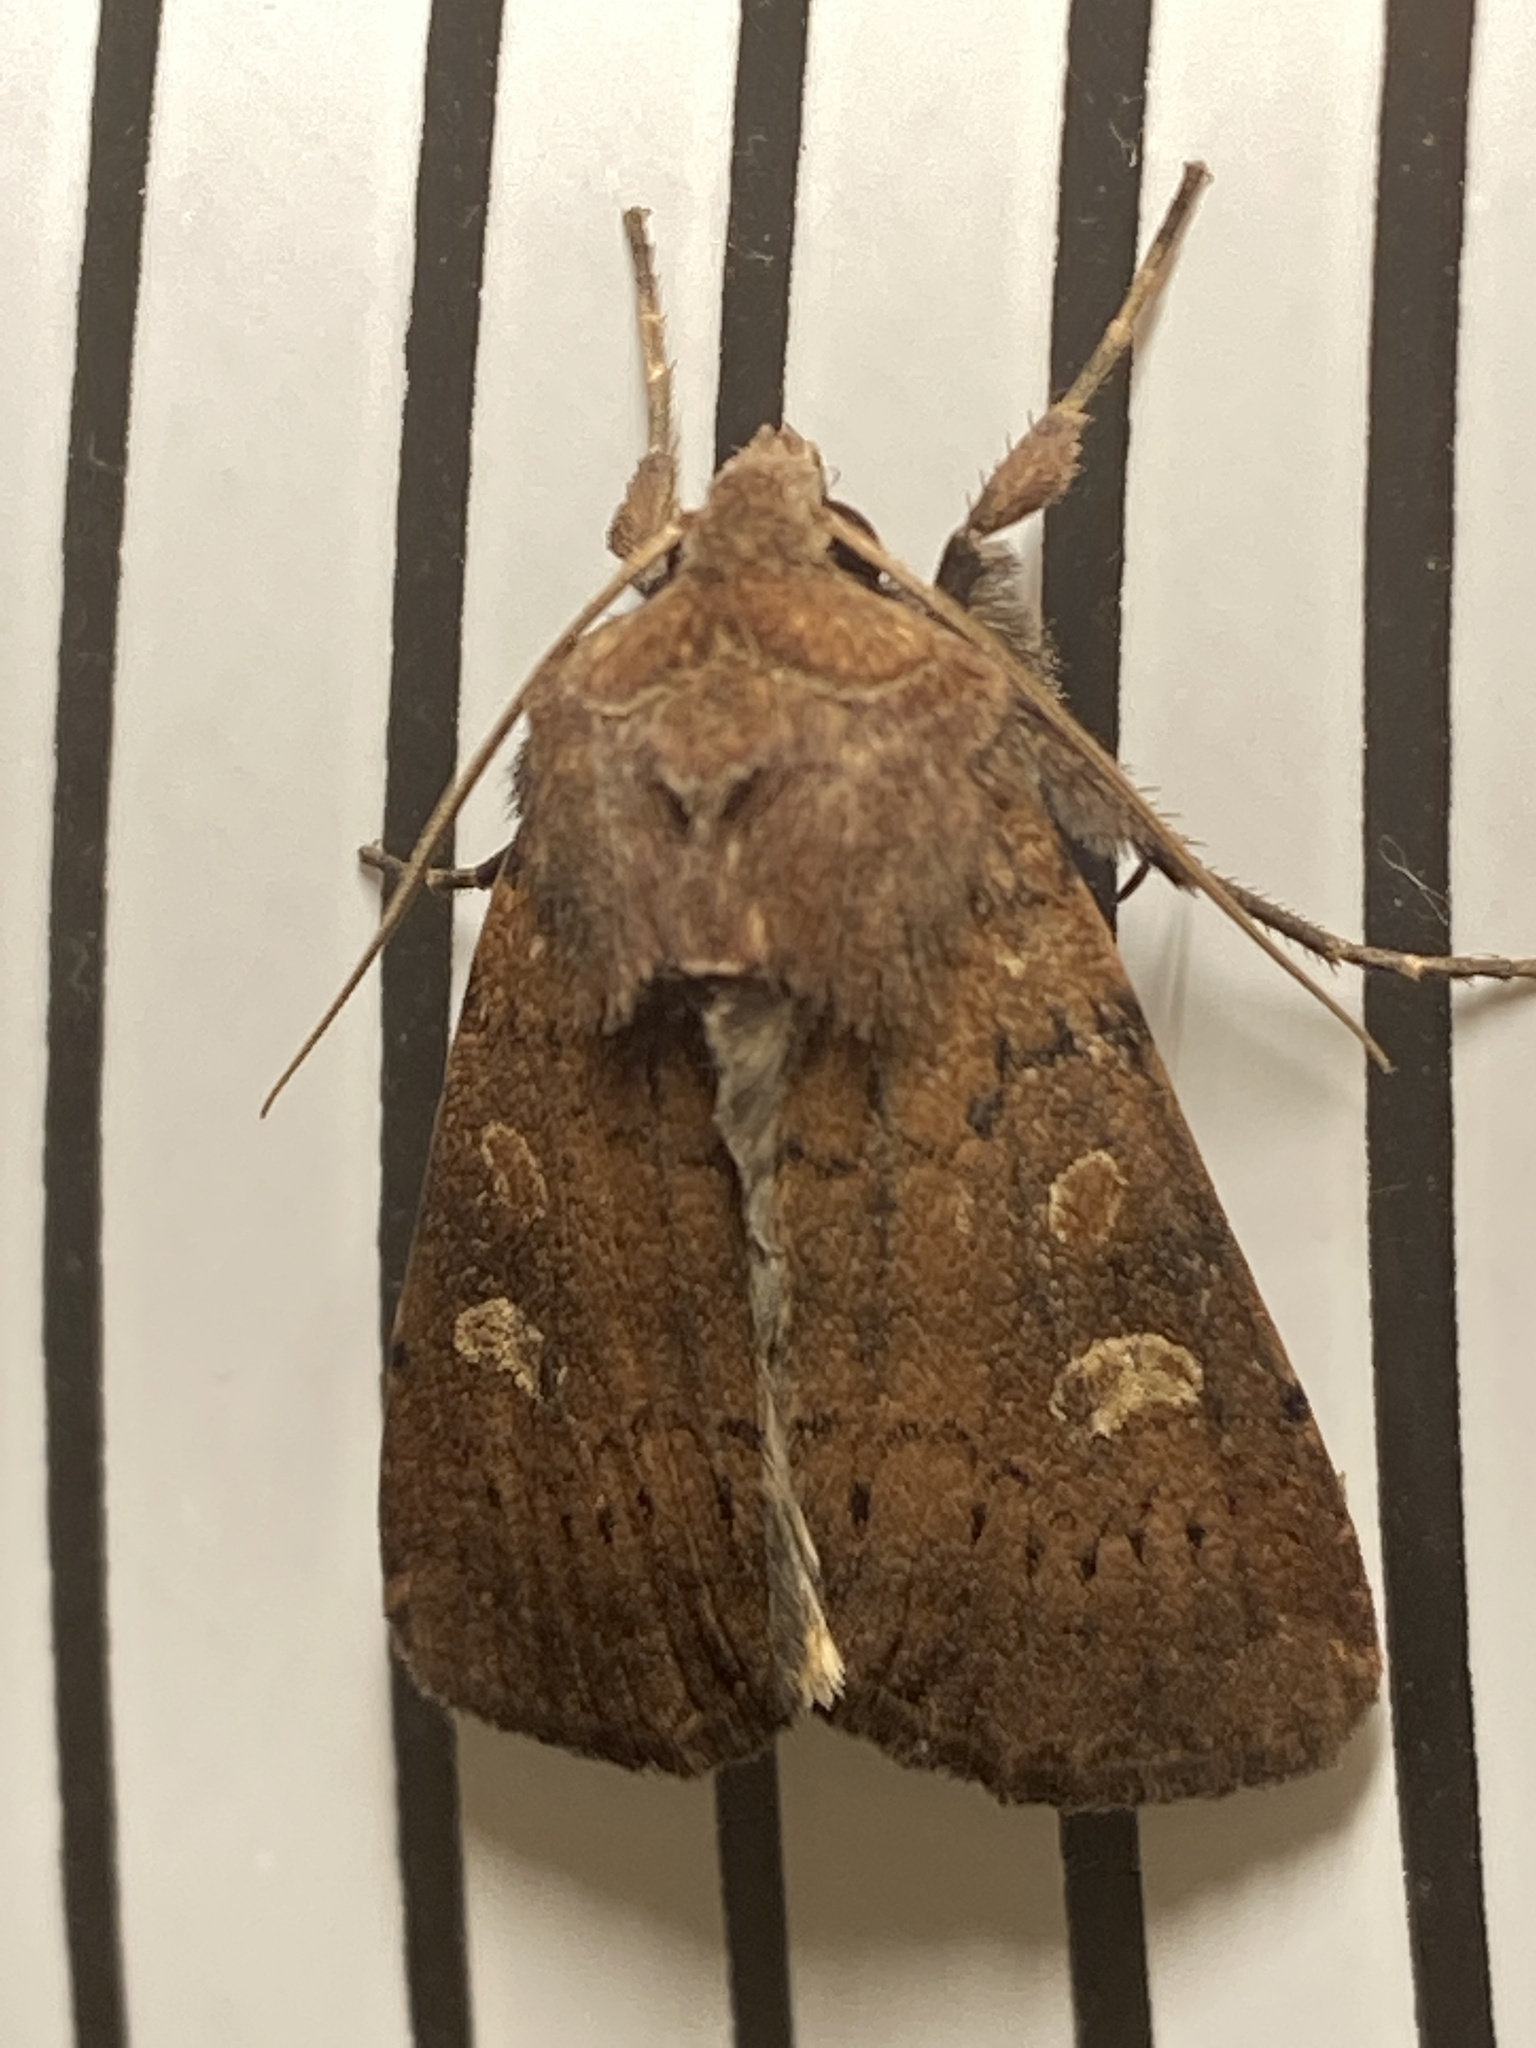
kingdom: Animalia
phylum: Arthropoda
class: Insecta
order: Lepidoptera
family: Noctuidae
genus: Xestia
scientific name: Xestia xanthographa
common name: Square-spot rustic
